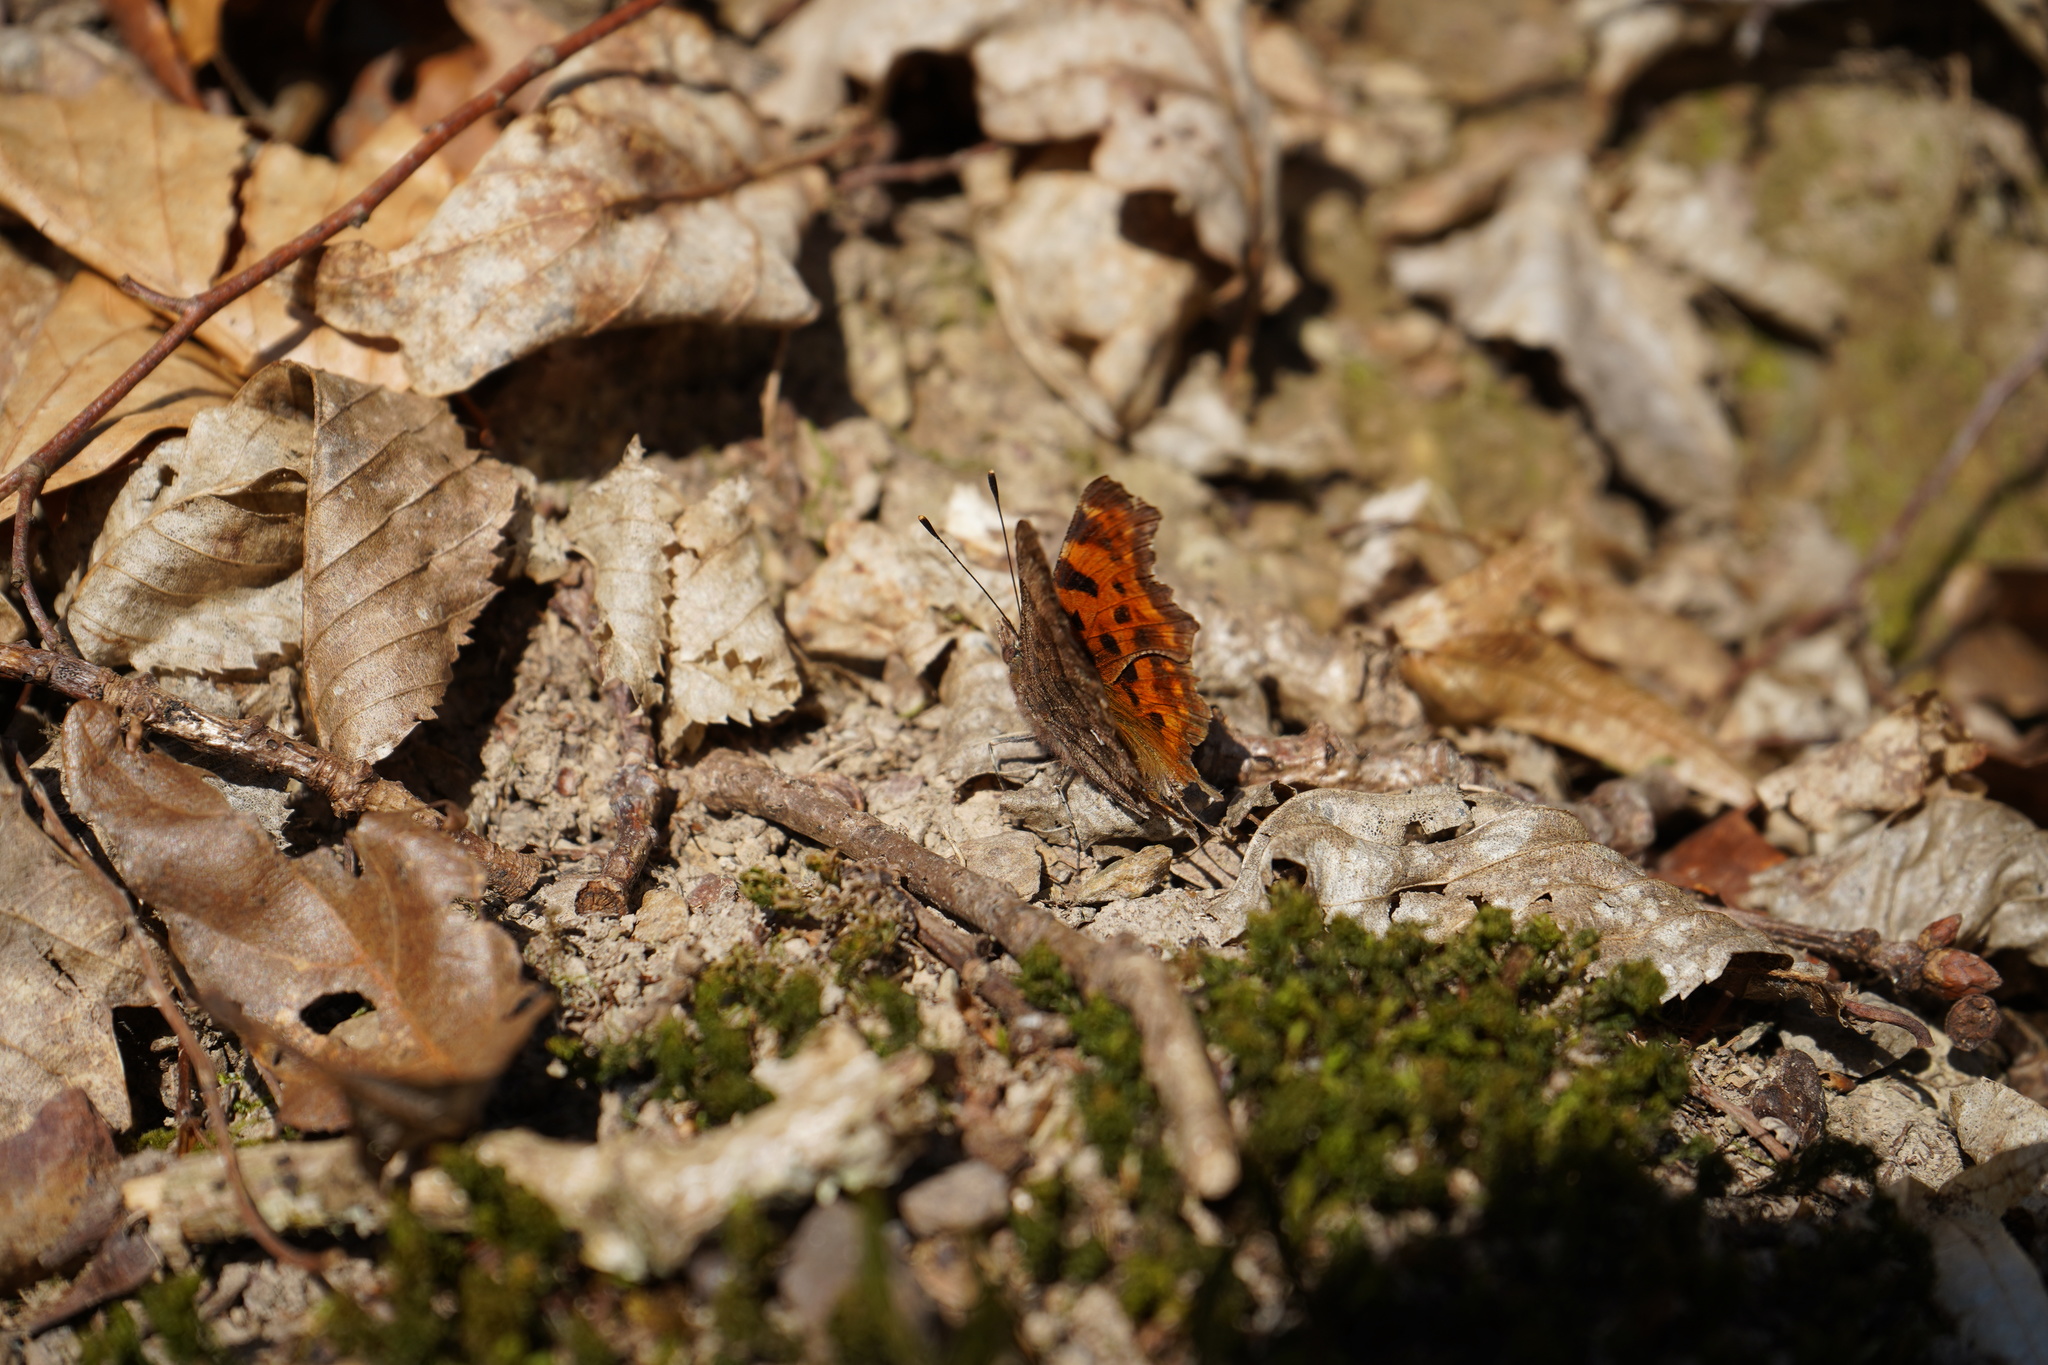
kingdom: Animalia
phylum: Arthropoda
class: Insecta
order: Lepidoptera
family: Nymphalidae
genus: Polygonia
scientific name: Polygonia c-album
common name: Comma
